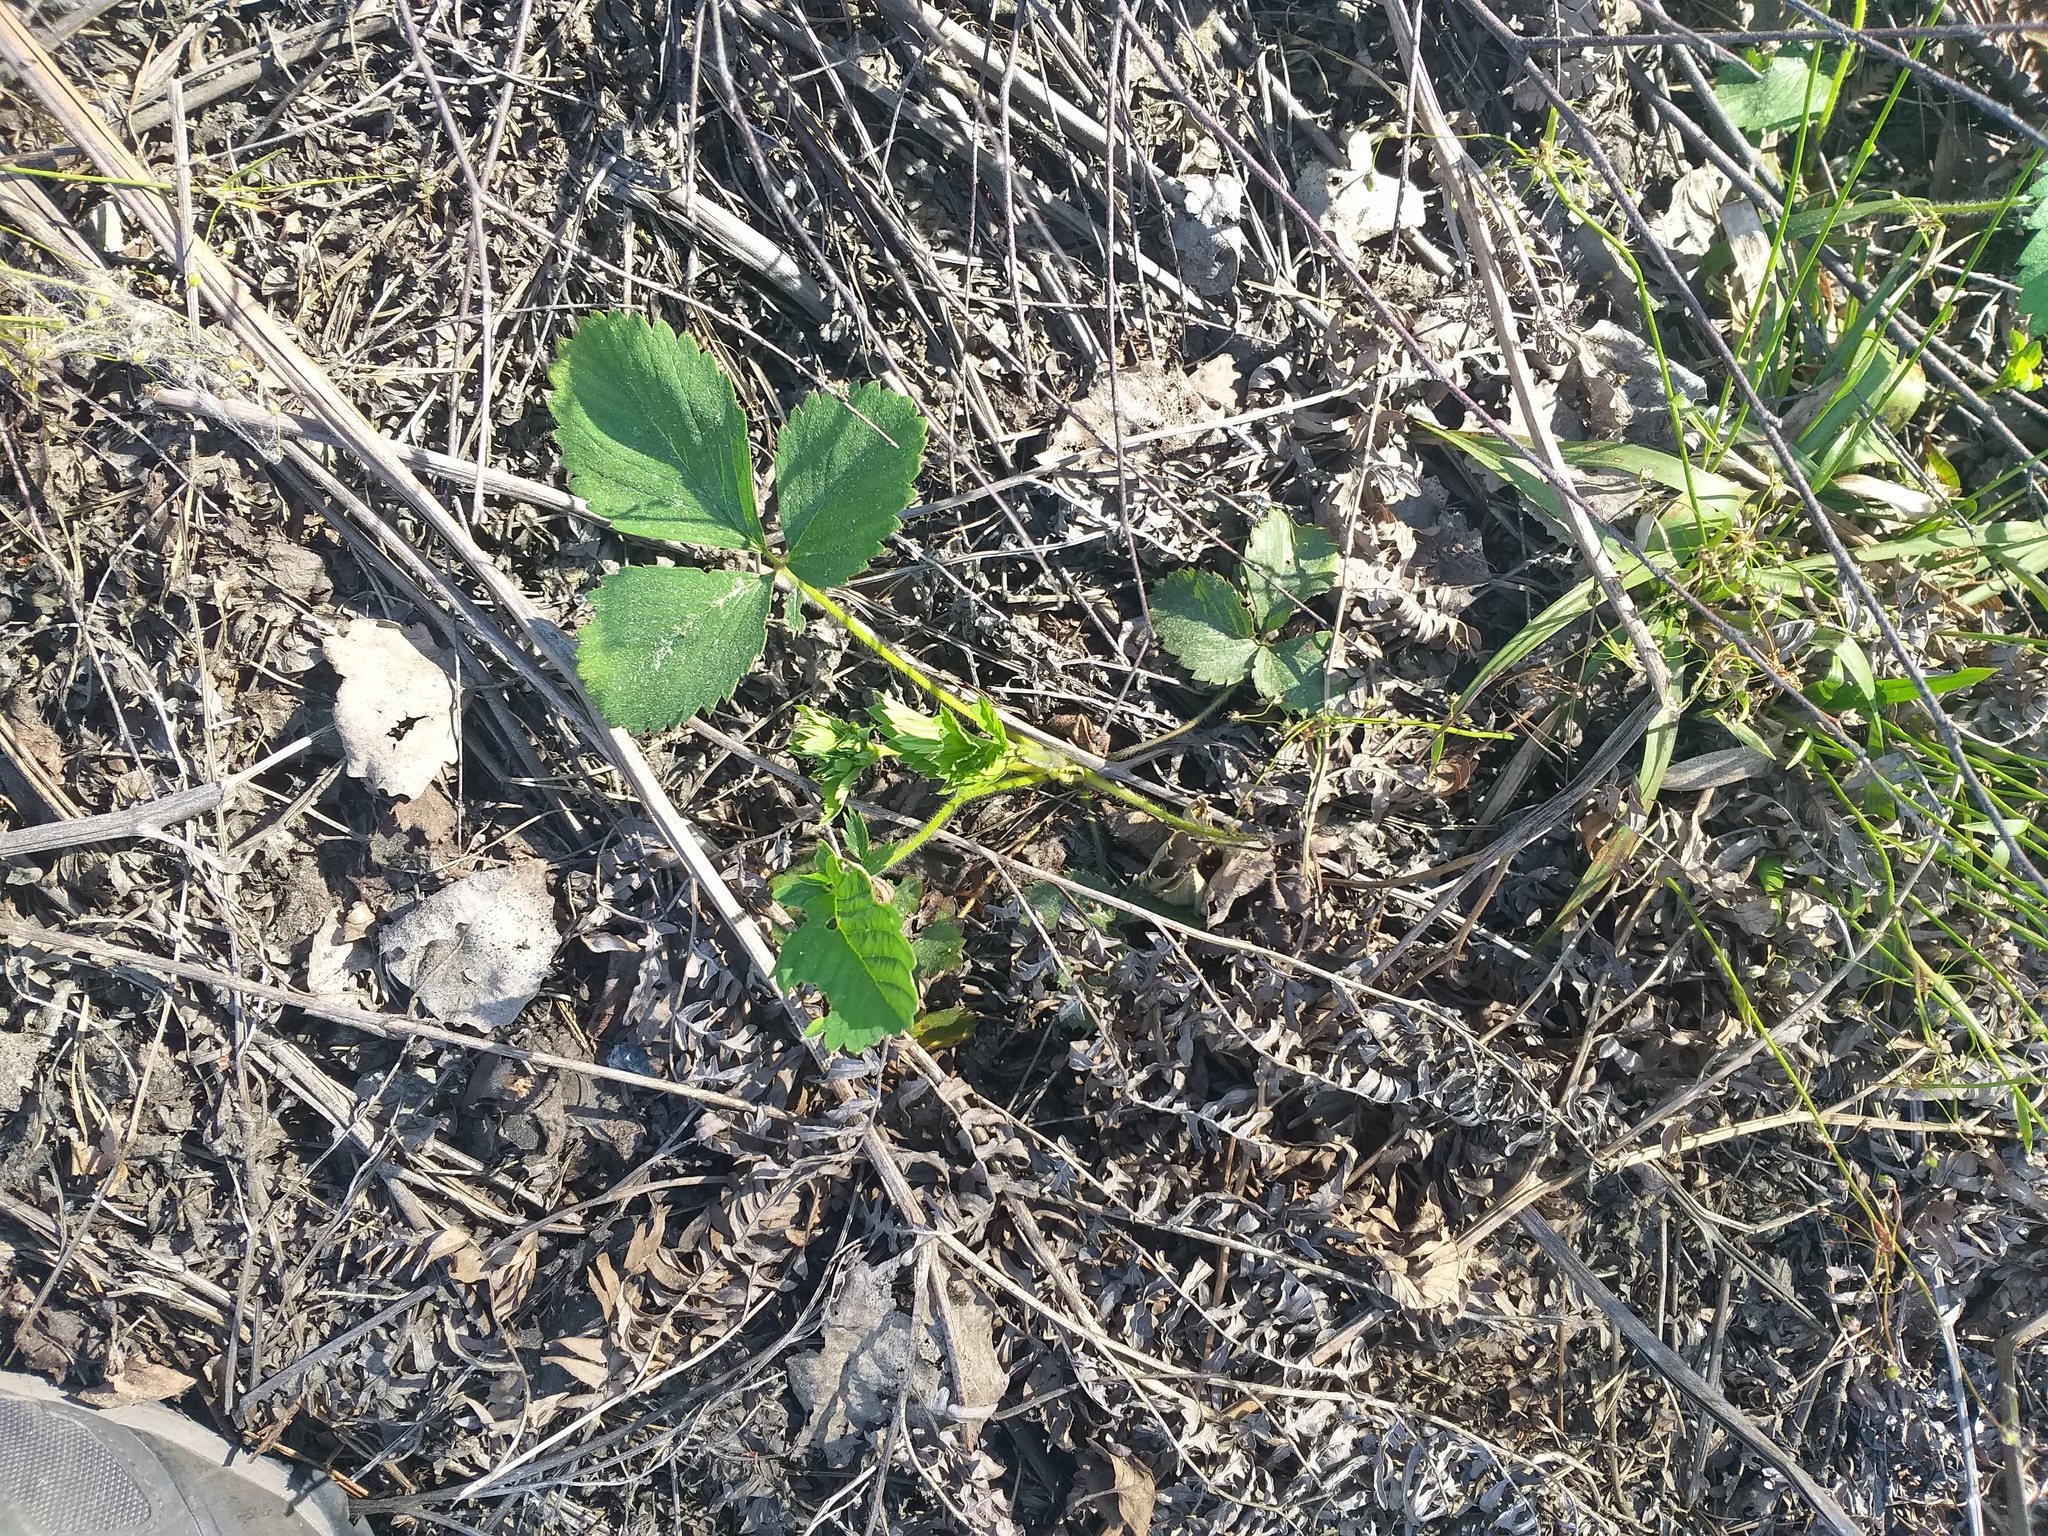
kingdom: Plantae
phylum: Tracheophyta
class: Magnoliopsida
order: Rosales
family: Rosaceae
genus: Fragaria
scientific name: Fragaria ananassa
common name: Garden strawberry
